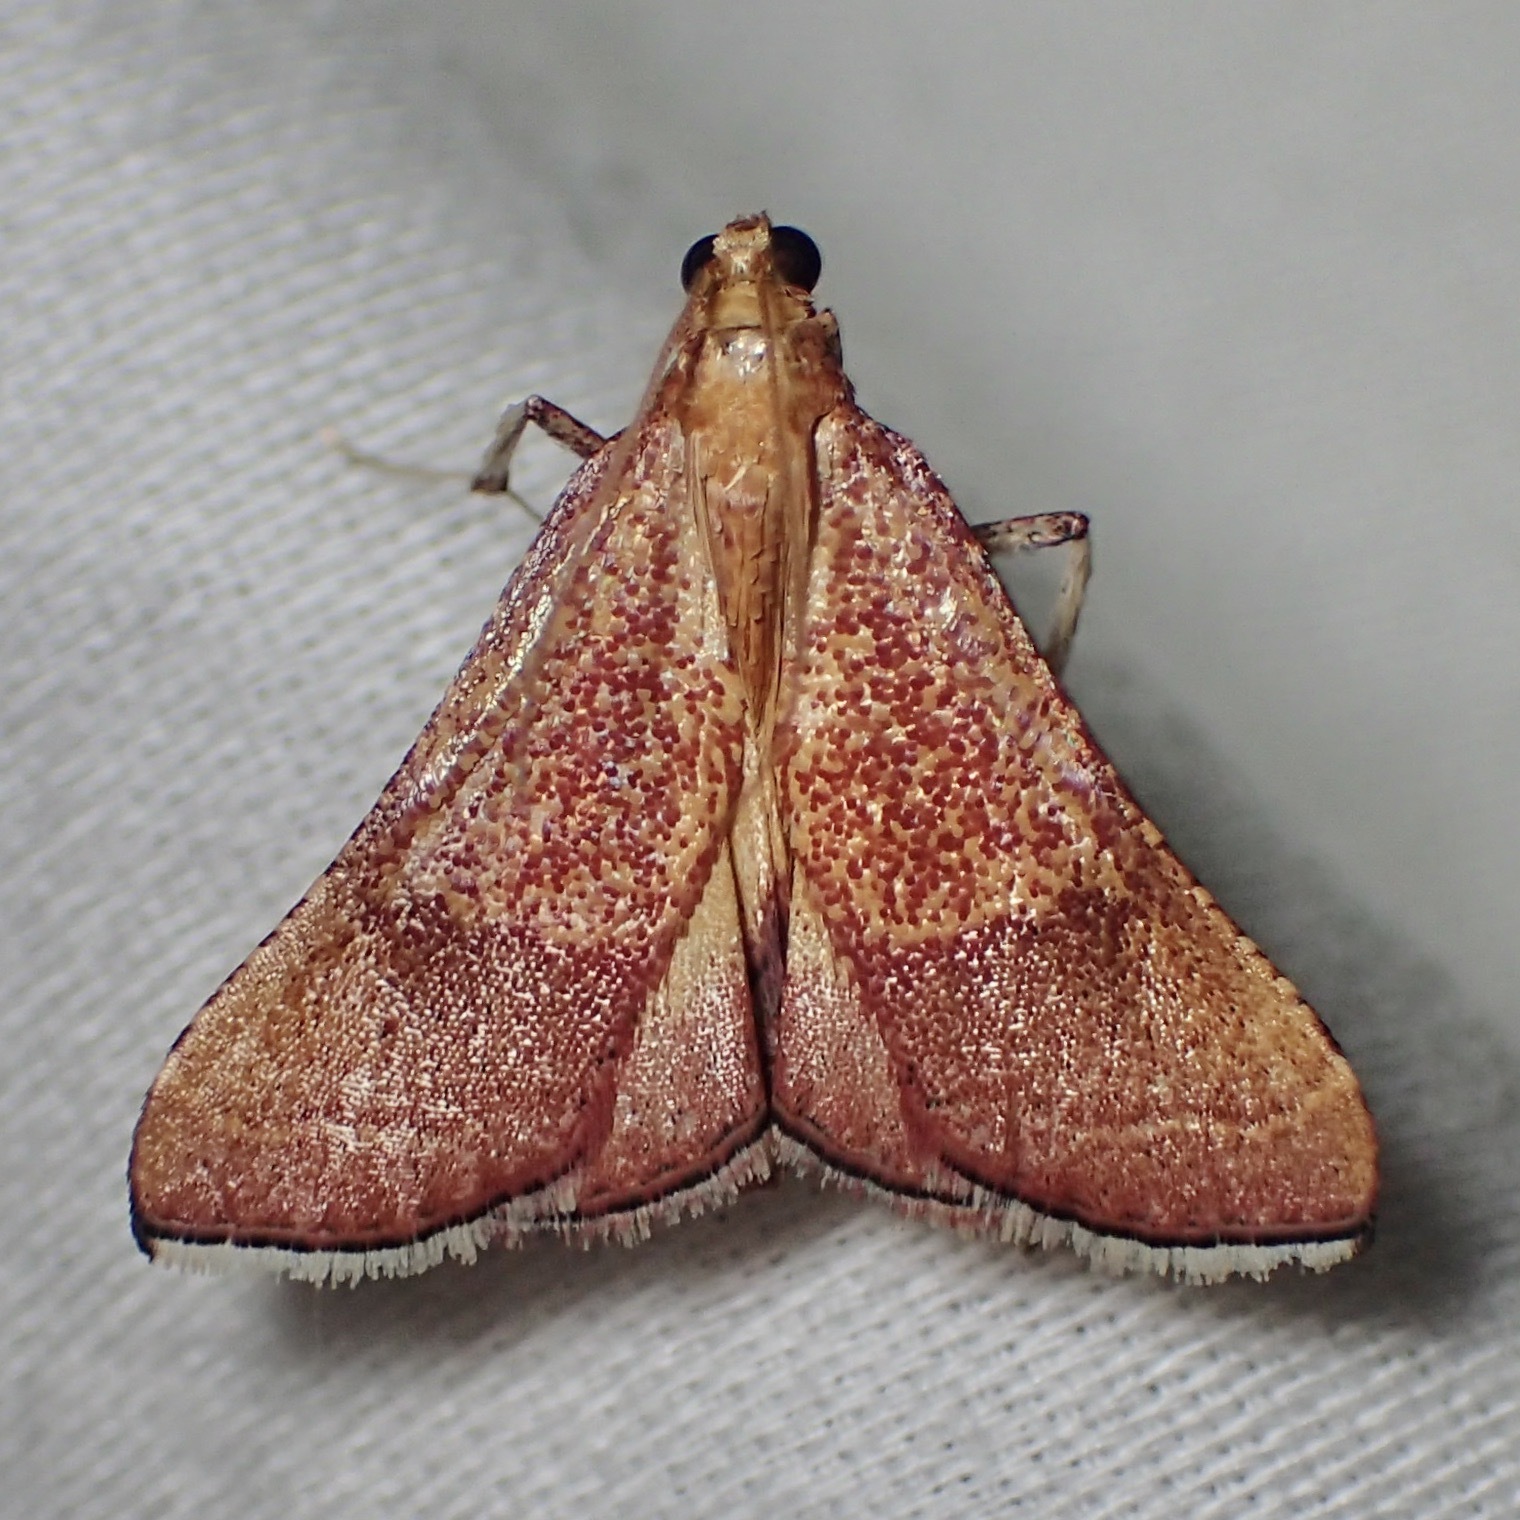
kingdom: Animalia
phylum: Arthropoda
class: Insecta
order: Lepidoptera
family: Pyralidae
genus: Endotricha
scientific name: Endotricha pyrosalis
